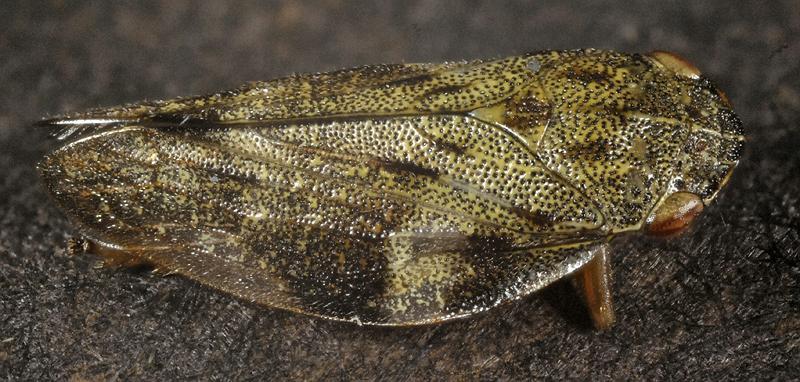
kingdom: Animalia
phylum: Arthropoda
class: Insecta
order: Hemiptera
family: Aphrophoridae
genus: Aphrophora
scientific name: Aphrophora alni
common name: European alder spittlebug
